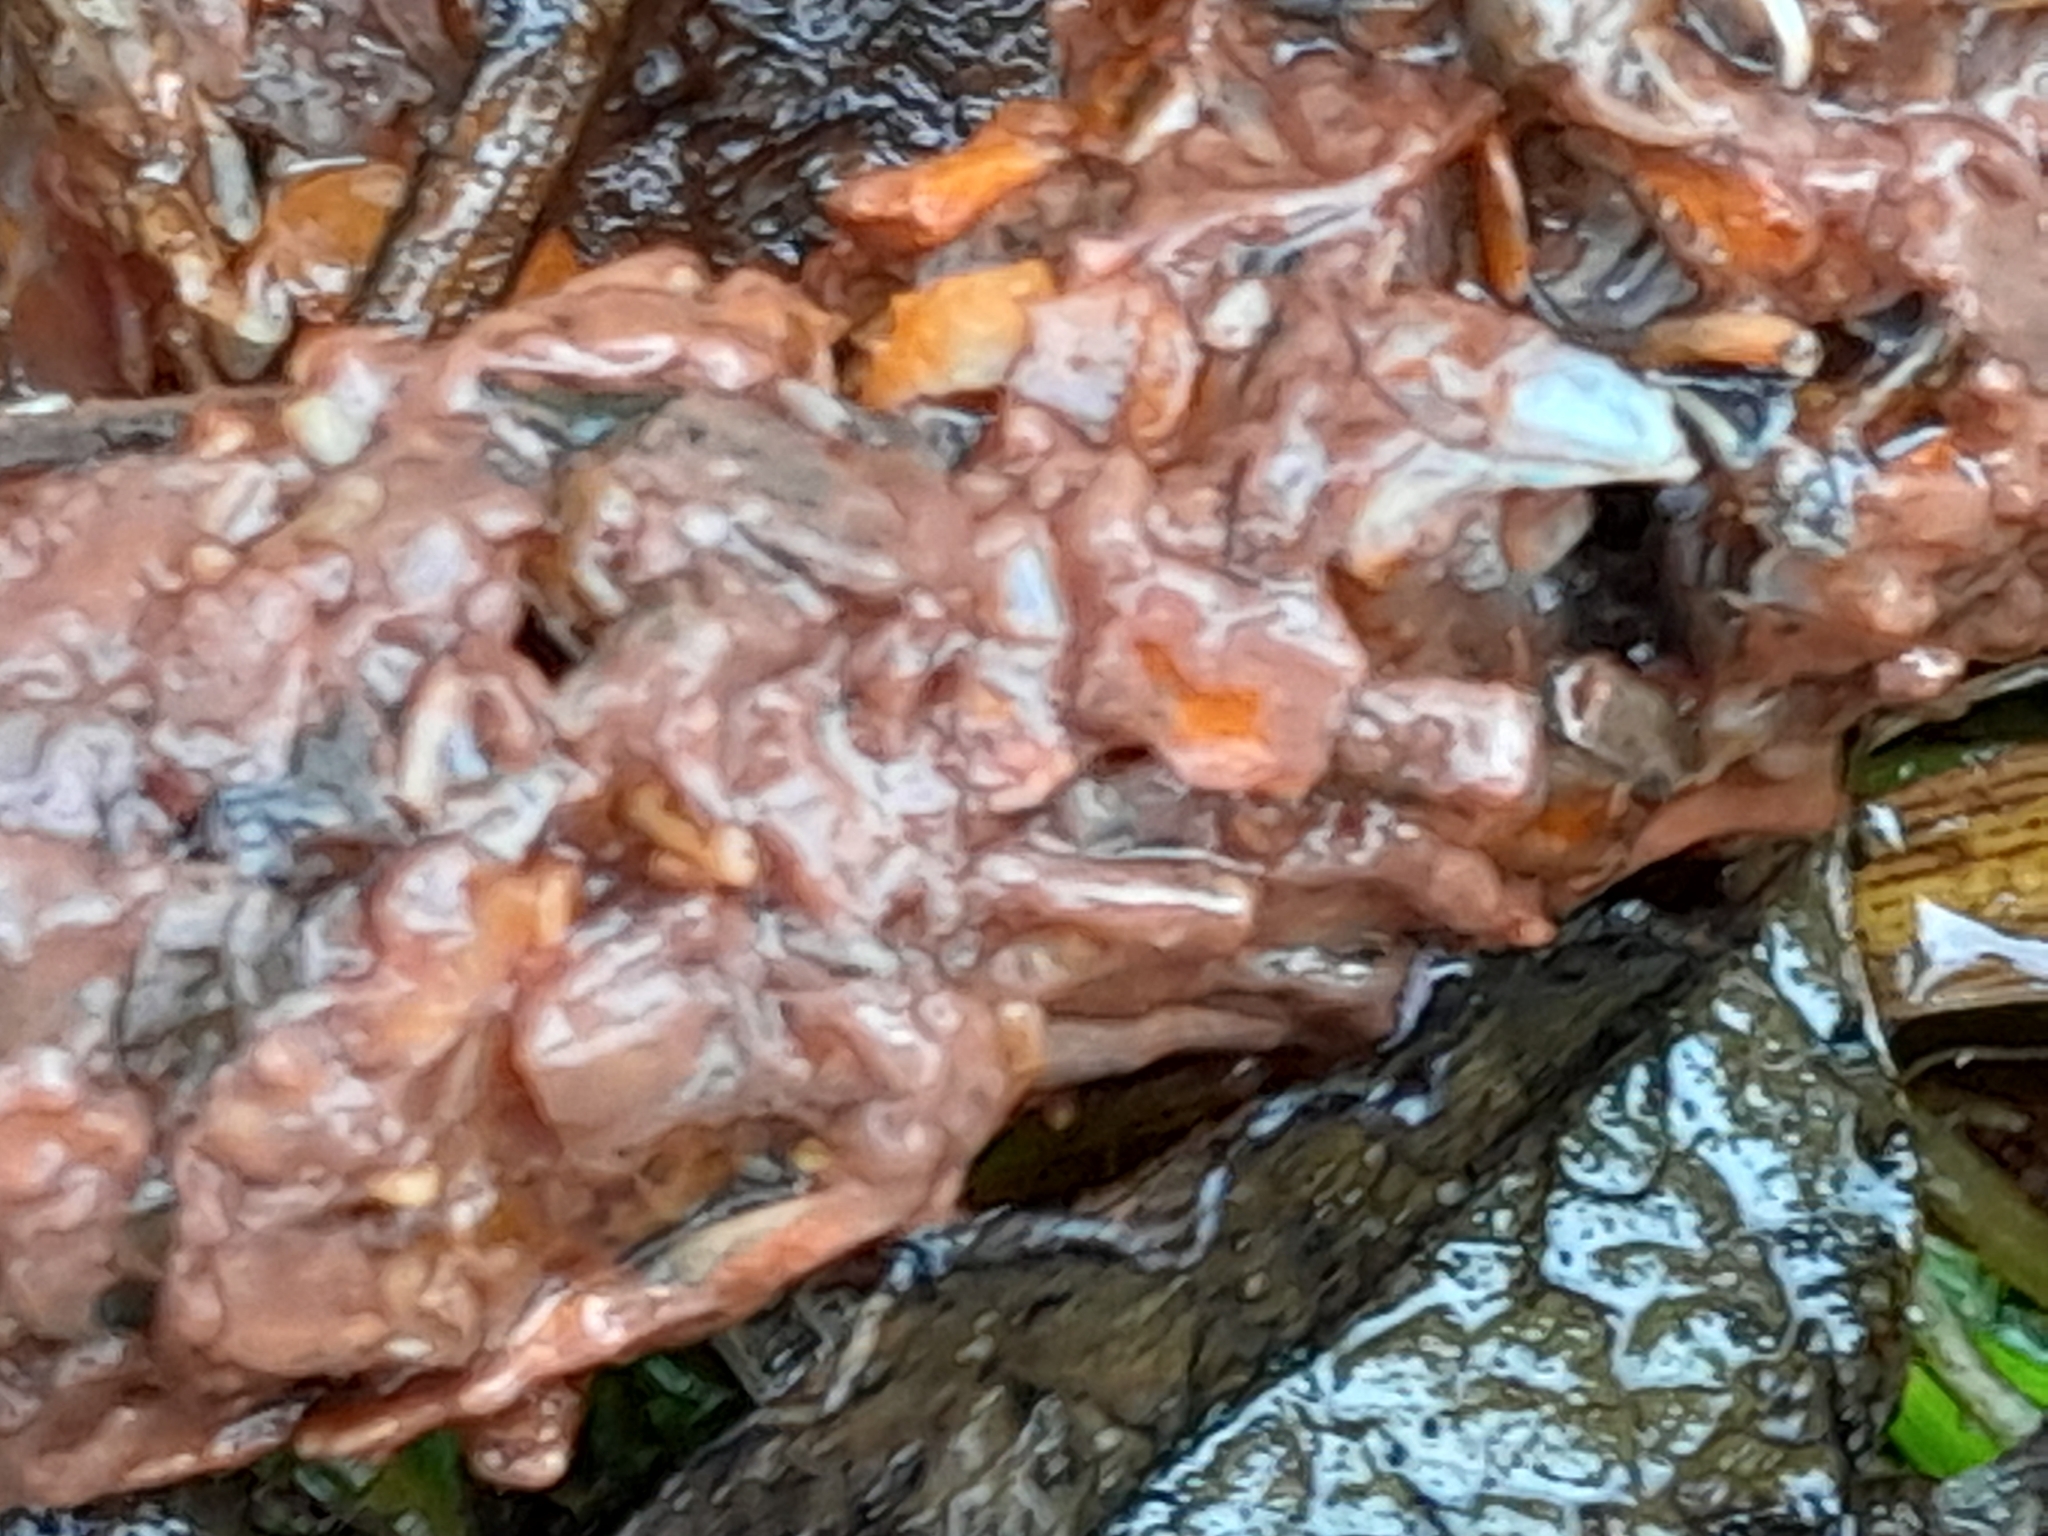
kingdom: Animalia
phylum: Arthropoda
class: Malacostraca
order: Decapoda
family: Cambaridae
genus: Procambarus
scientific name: Procambarus clarkii
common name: Red swamp crayfish
